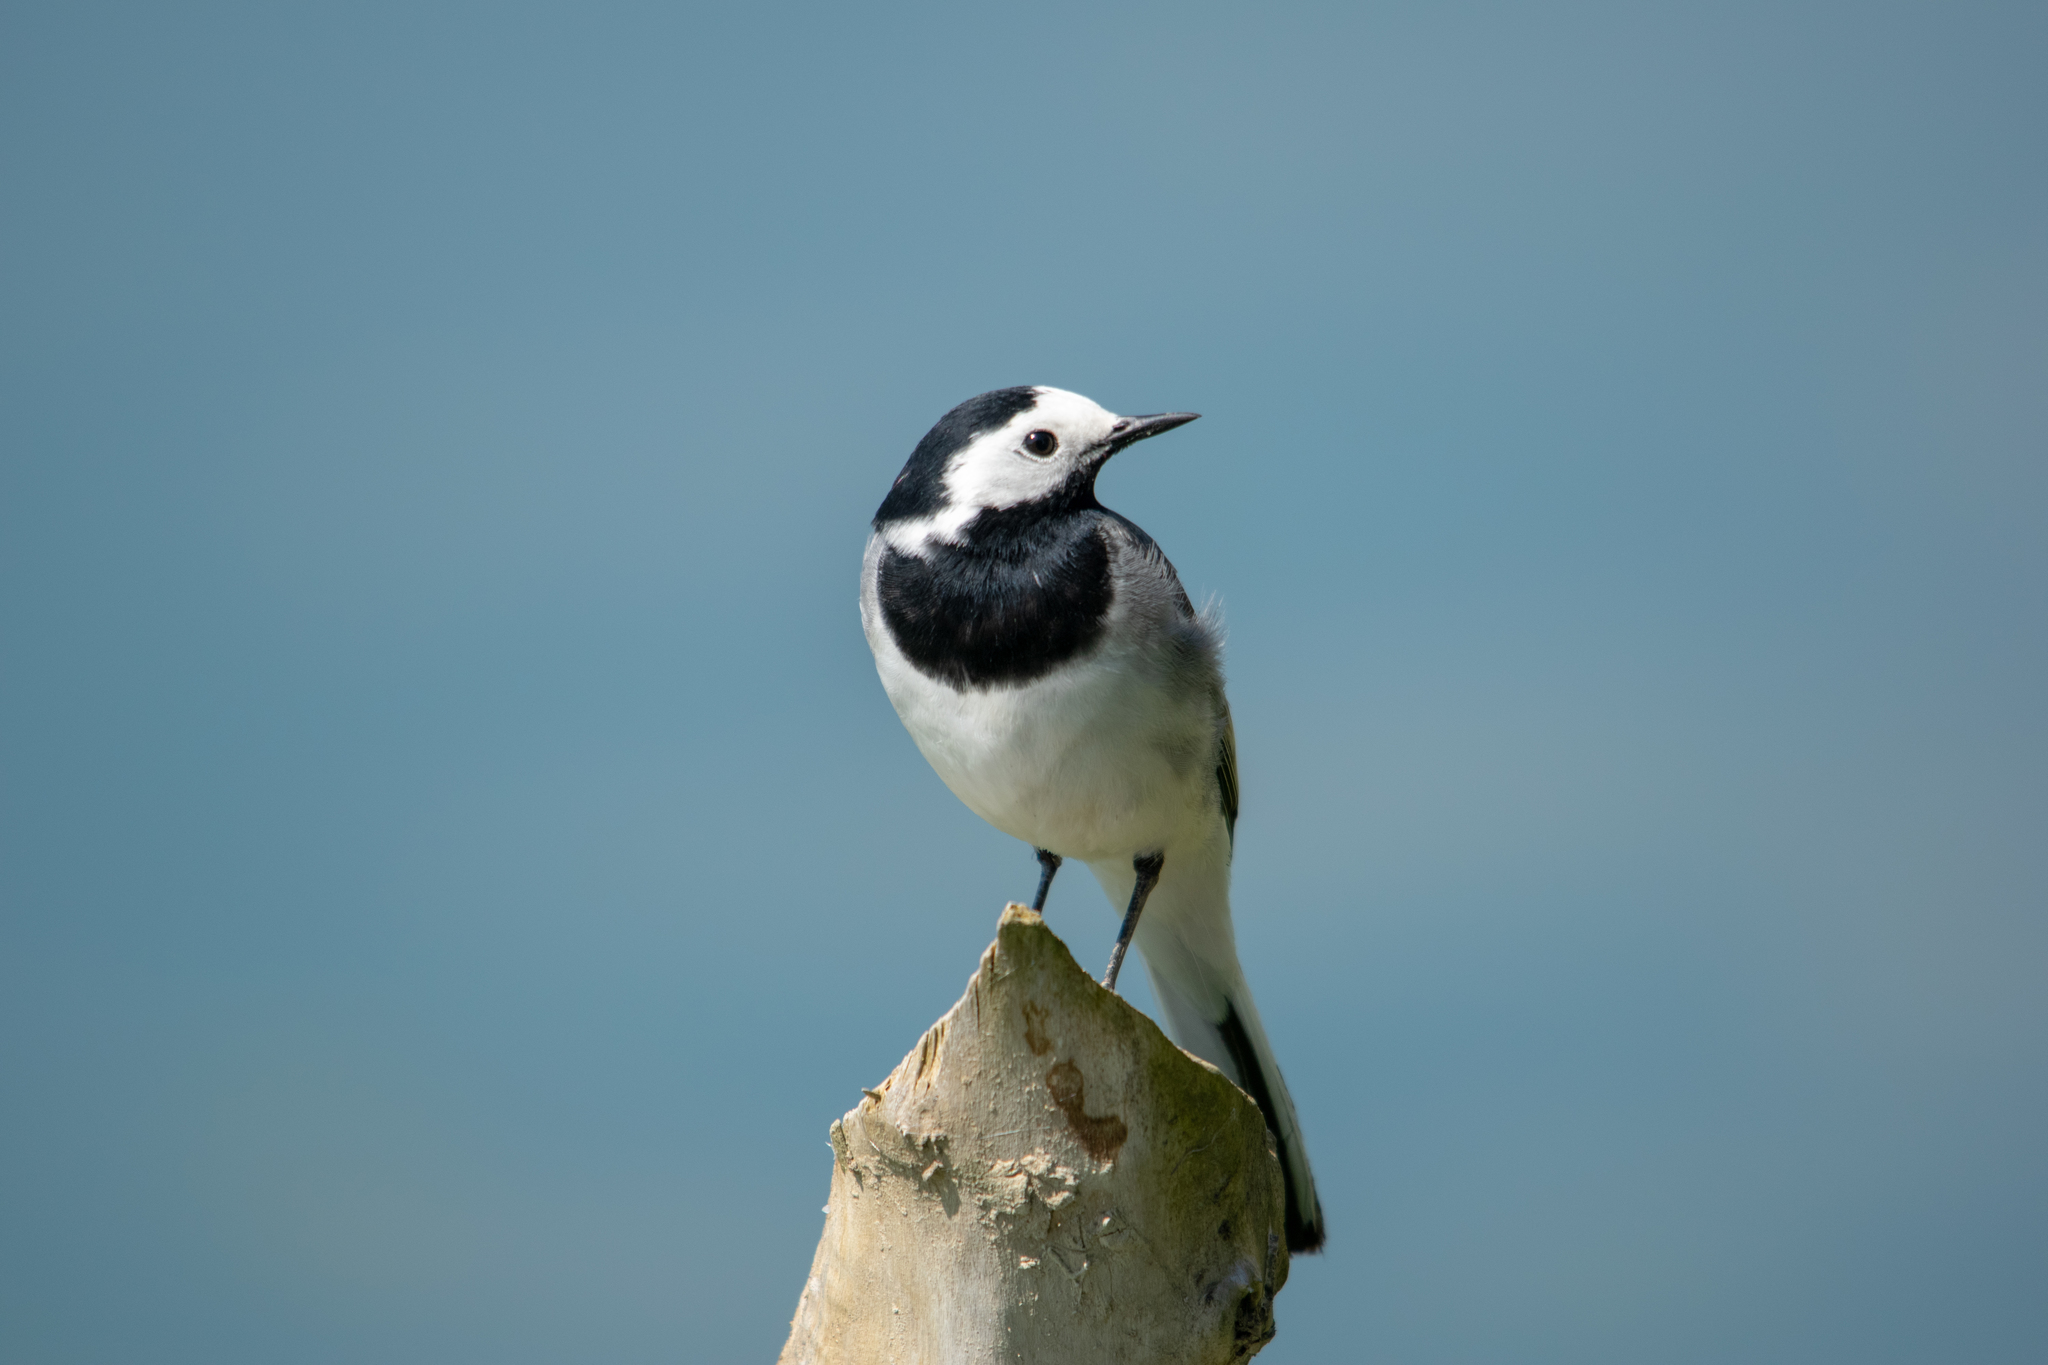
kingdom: Animalia
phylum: Chordata
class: Aves
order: Passeriformes
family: Motacillidae
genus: Motacilla
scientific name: Motacilla alba
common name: White wagtail
